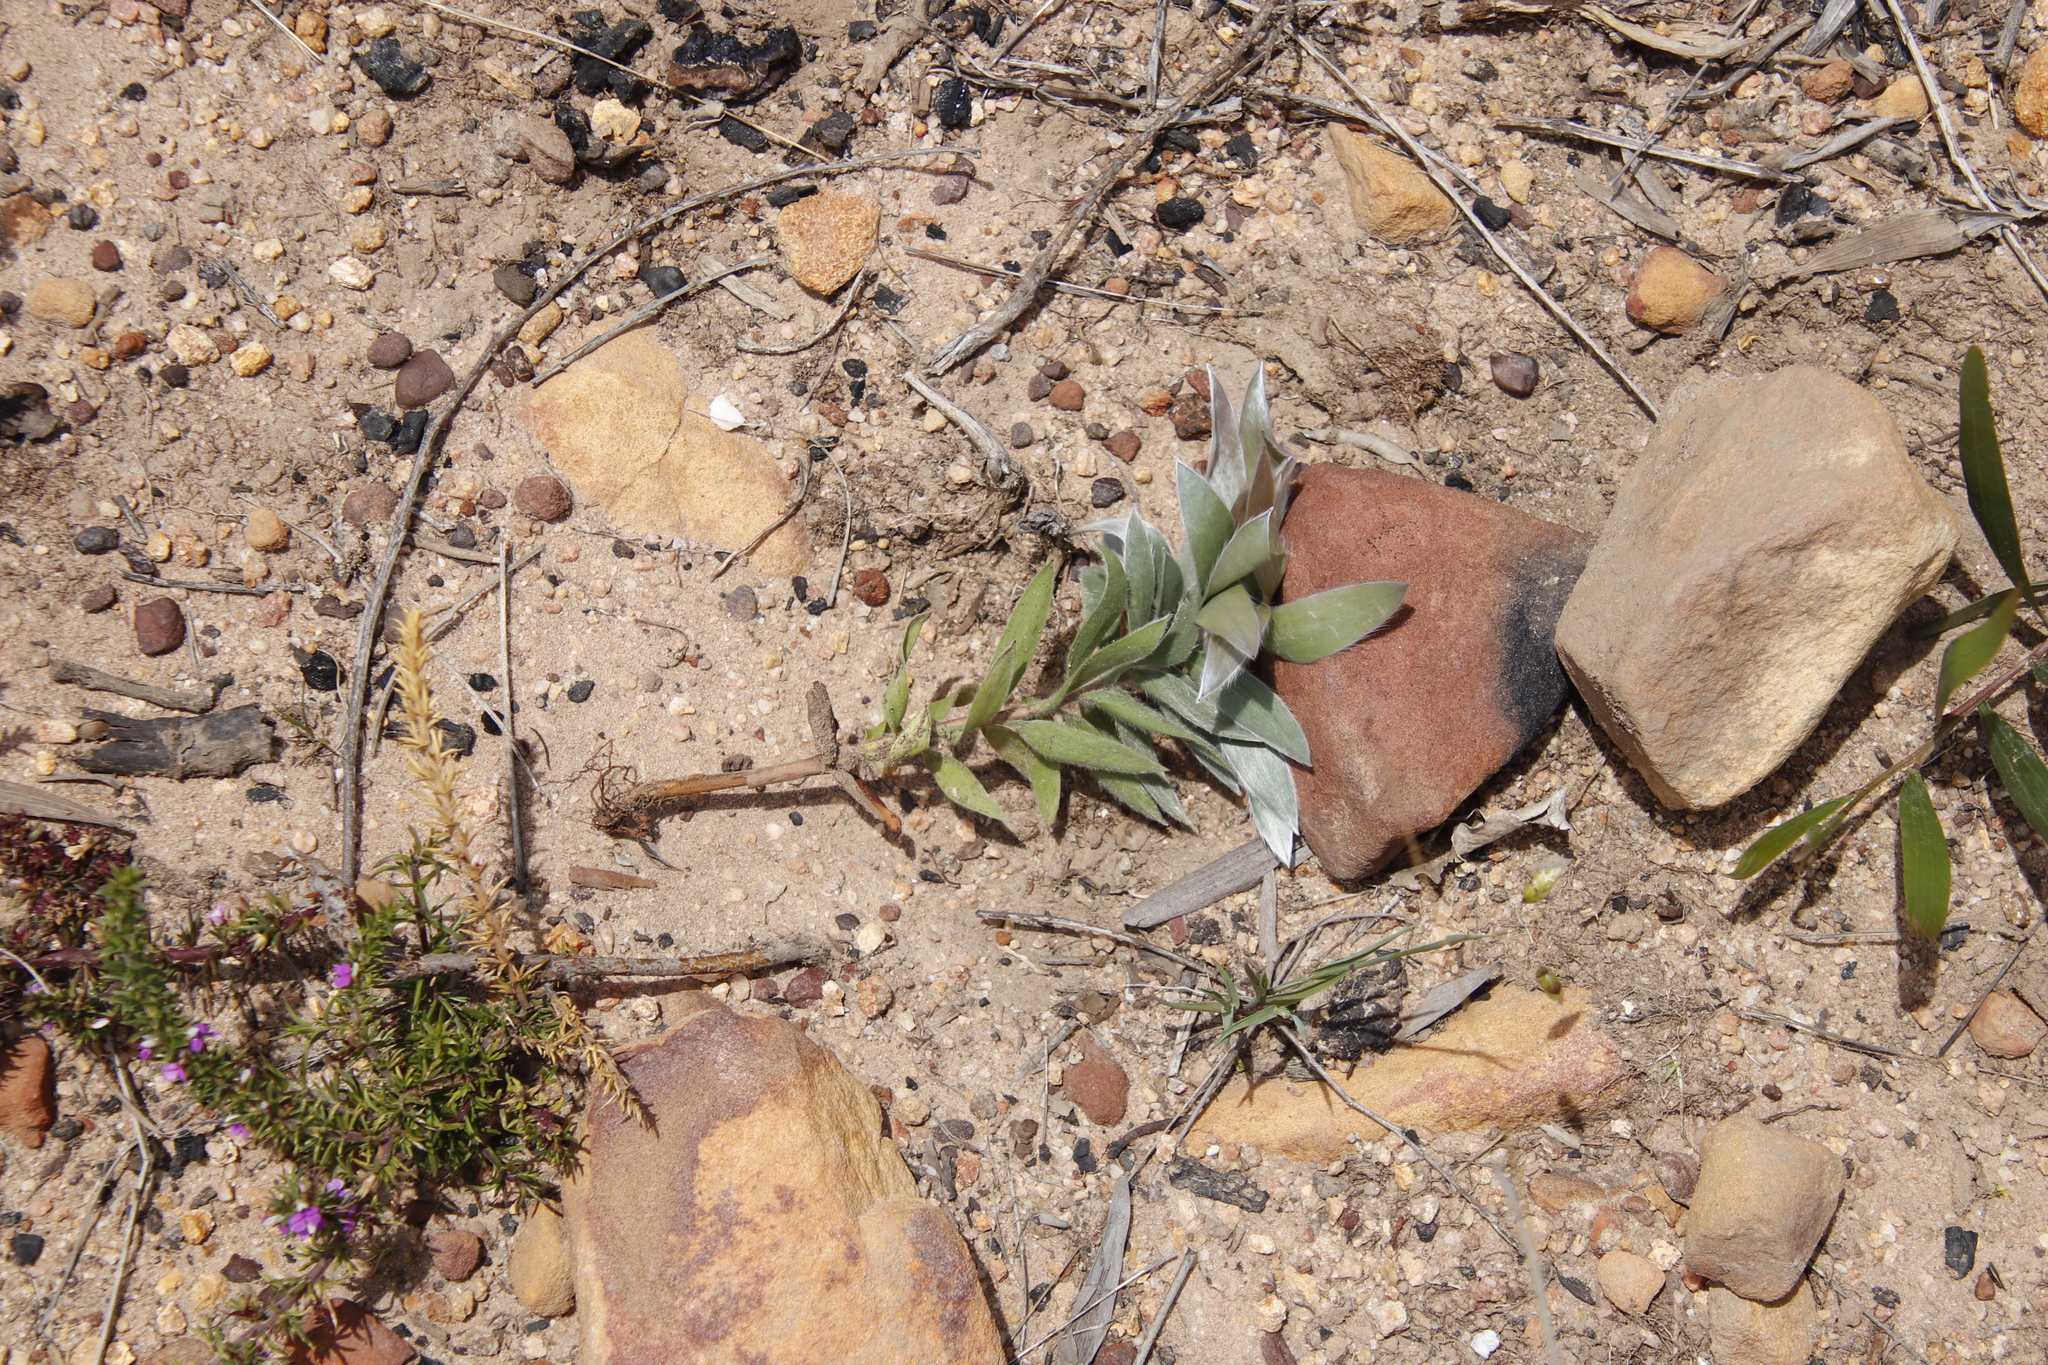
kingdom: Animalia
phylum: Chordata
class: Mammalia
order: Primates
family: Cercopithecidae
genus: Papio
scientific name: Papio ursinus
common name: Chacma baboon
